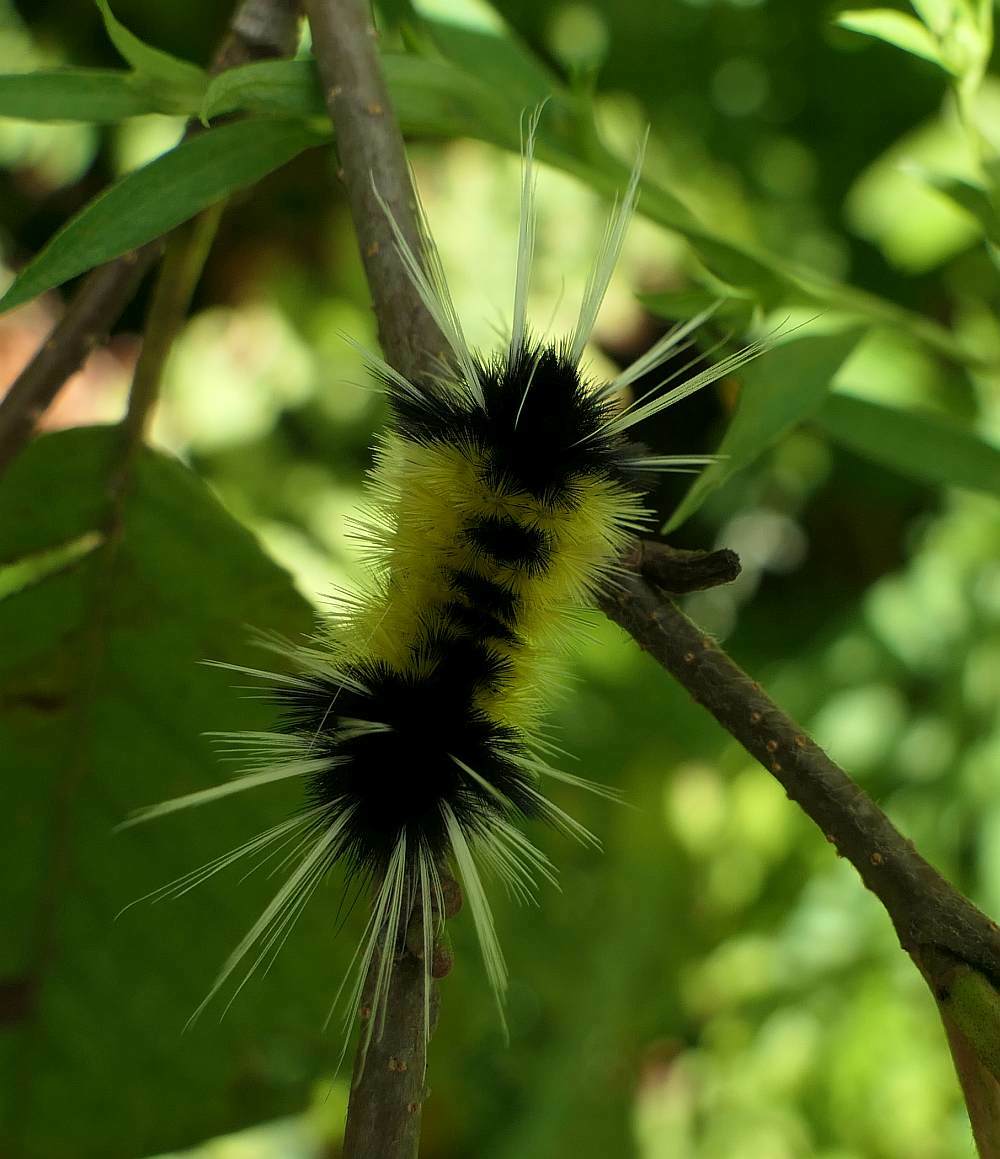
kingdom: Animalia
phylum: Arthropoda
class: Insecta
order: Lepidoptera
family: Erebidae
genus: Lophocampa
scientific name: Lophocampa maculata
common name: Spotted tussock moth
